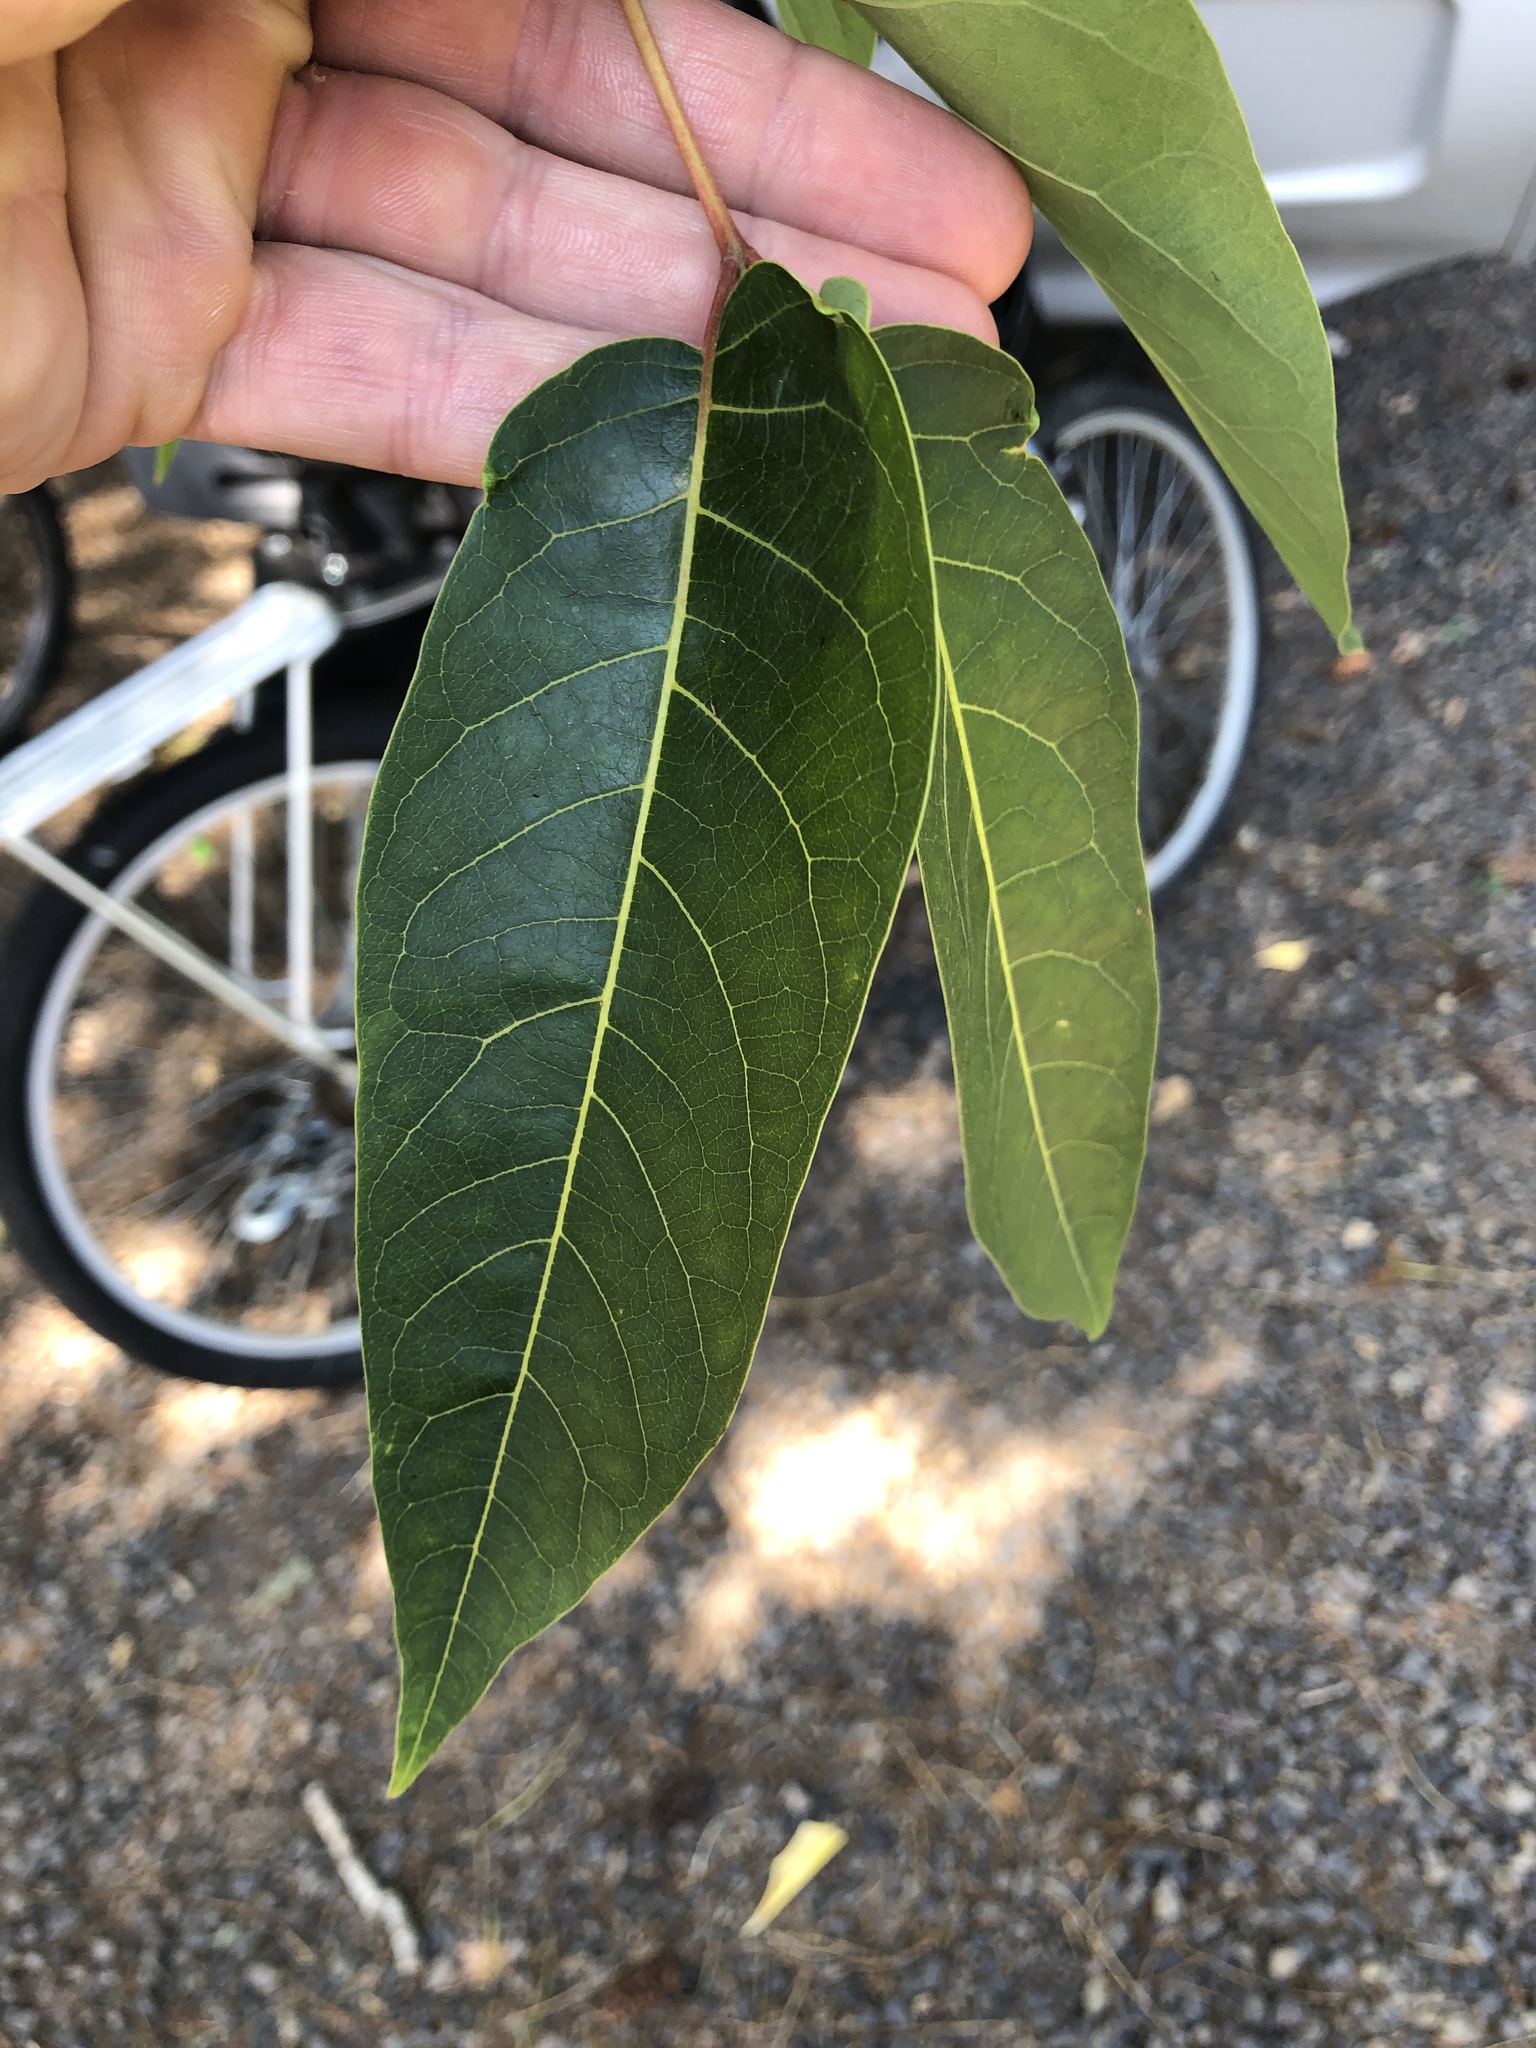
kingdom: Plantae
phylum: Tracheophyta
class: Magnoliopsida
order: Sapindales
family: Simaroubaceae
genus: Ailanthus
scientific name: Ailanthus altissima
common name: Tree-of-heaven
